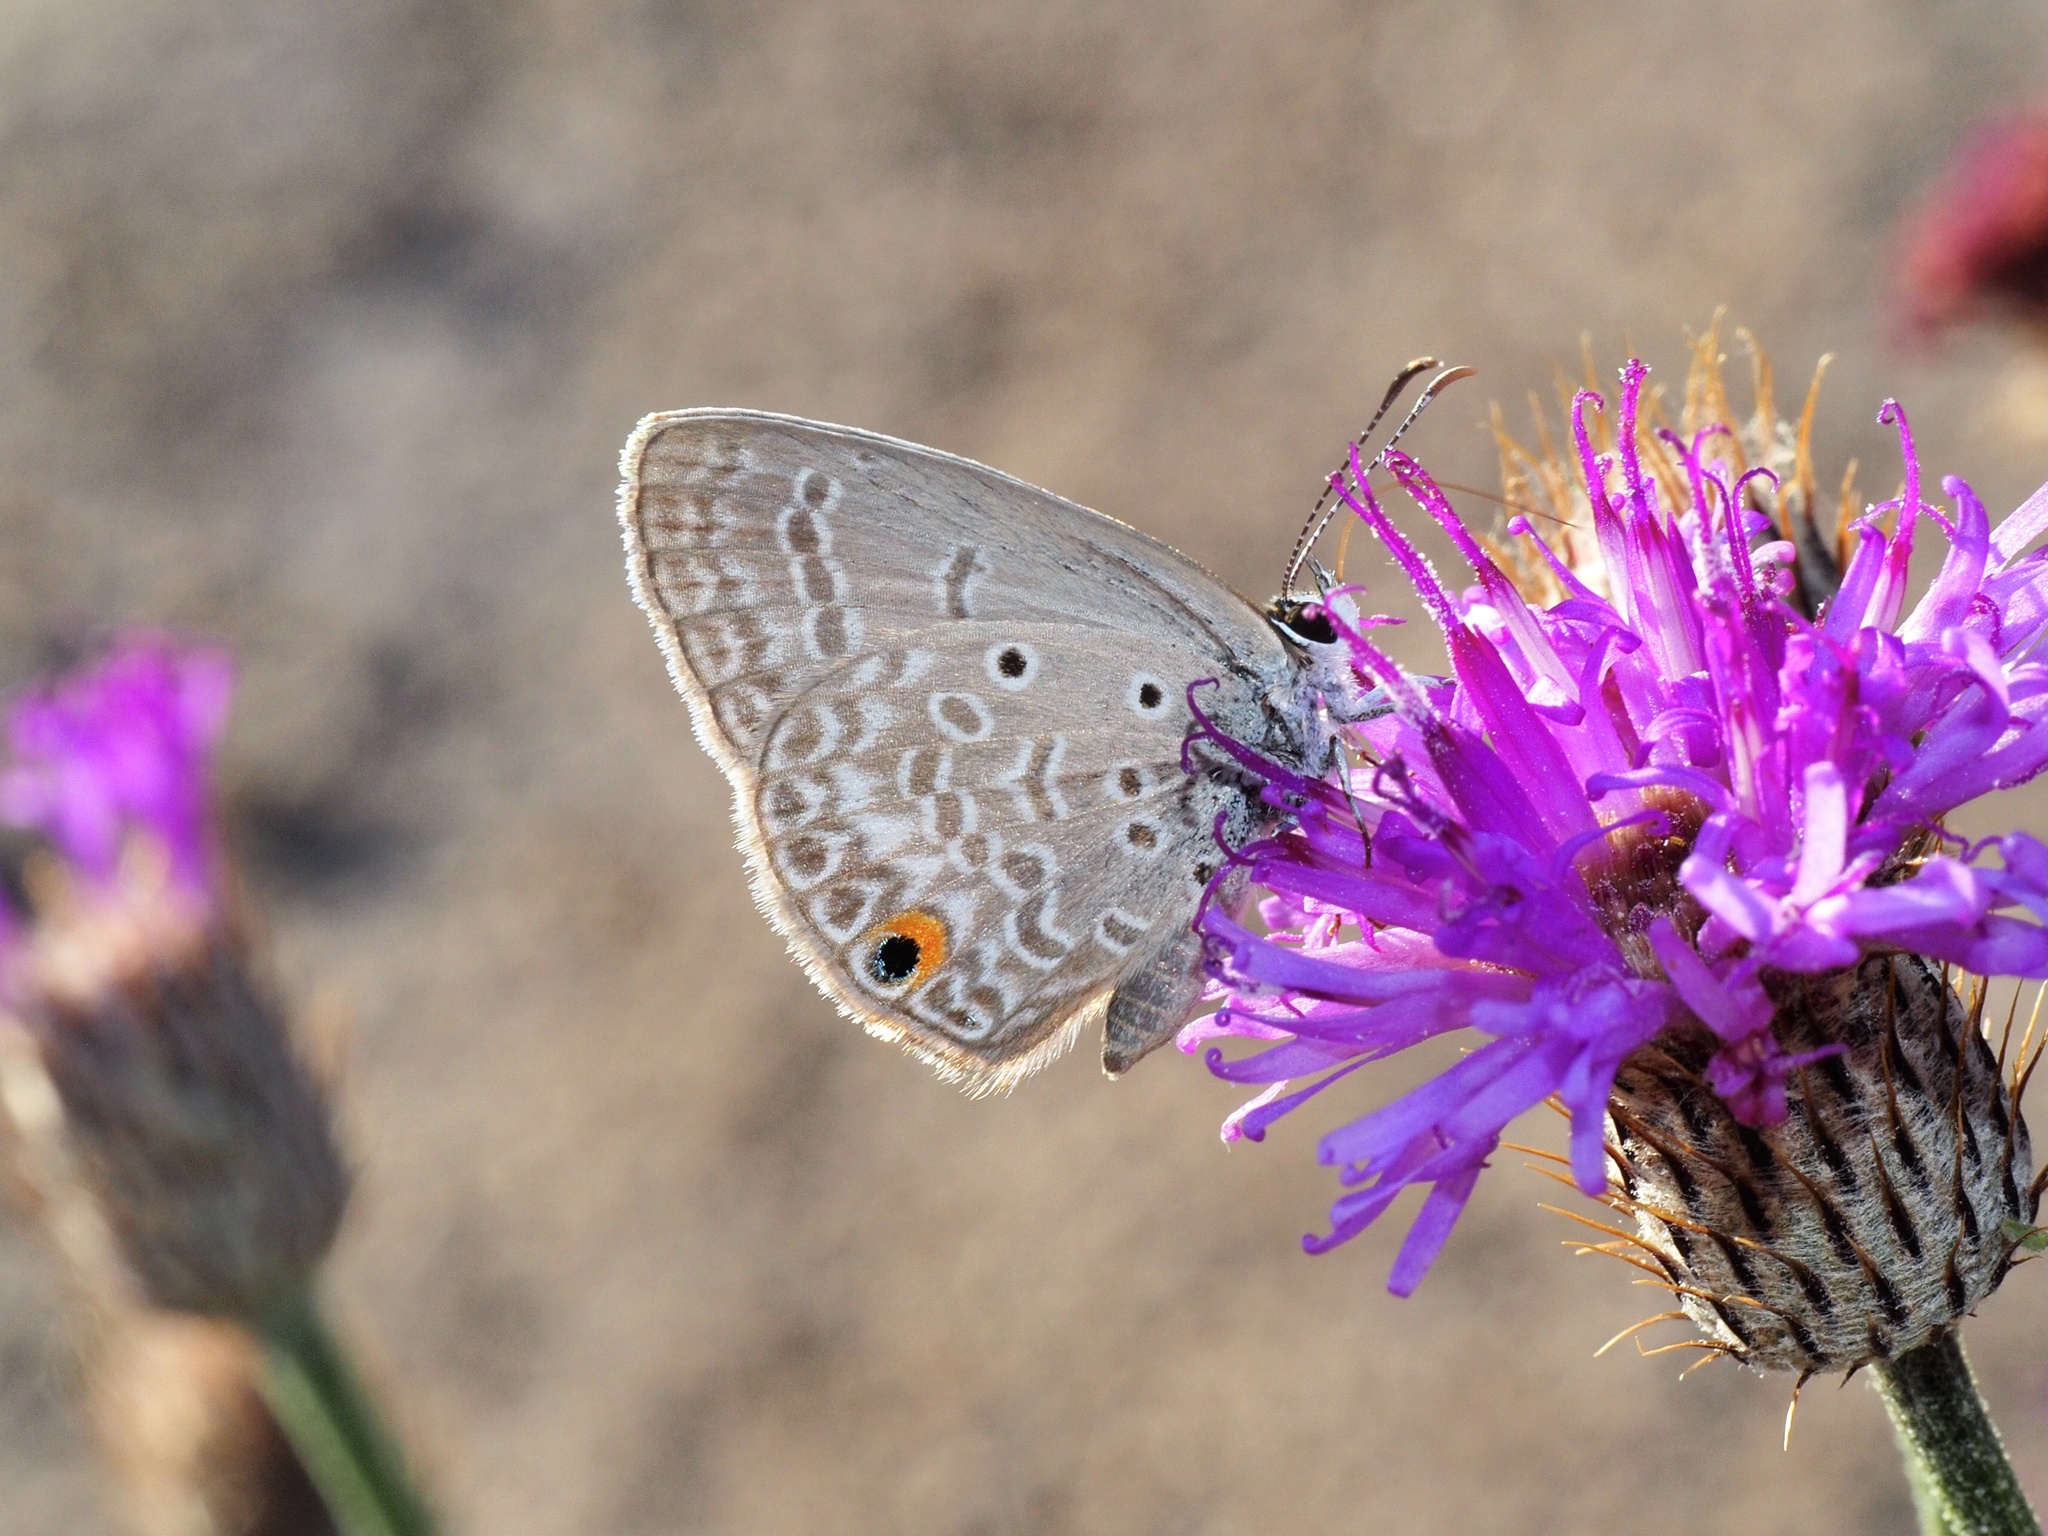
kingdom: Animalia
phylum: Arthropoda
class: Insecta
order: Lepidoptera
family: Lycaenidae
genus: Euchrysops
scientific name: Euchrysops malathana
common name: Common smoky blue
